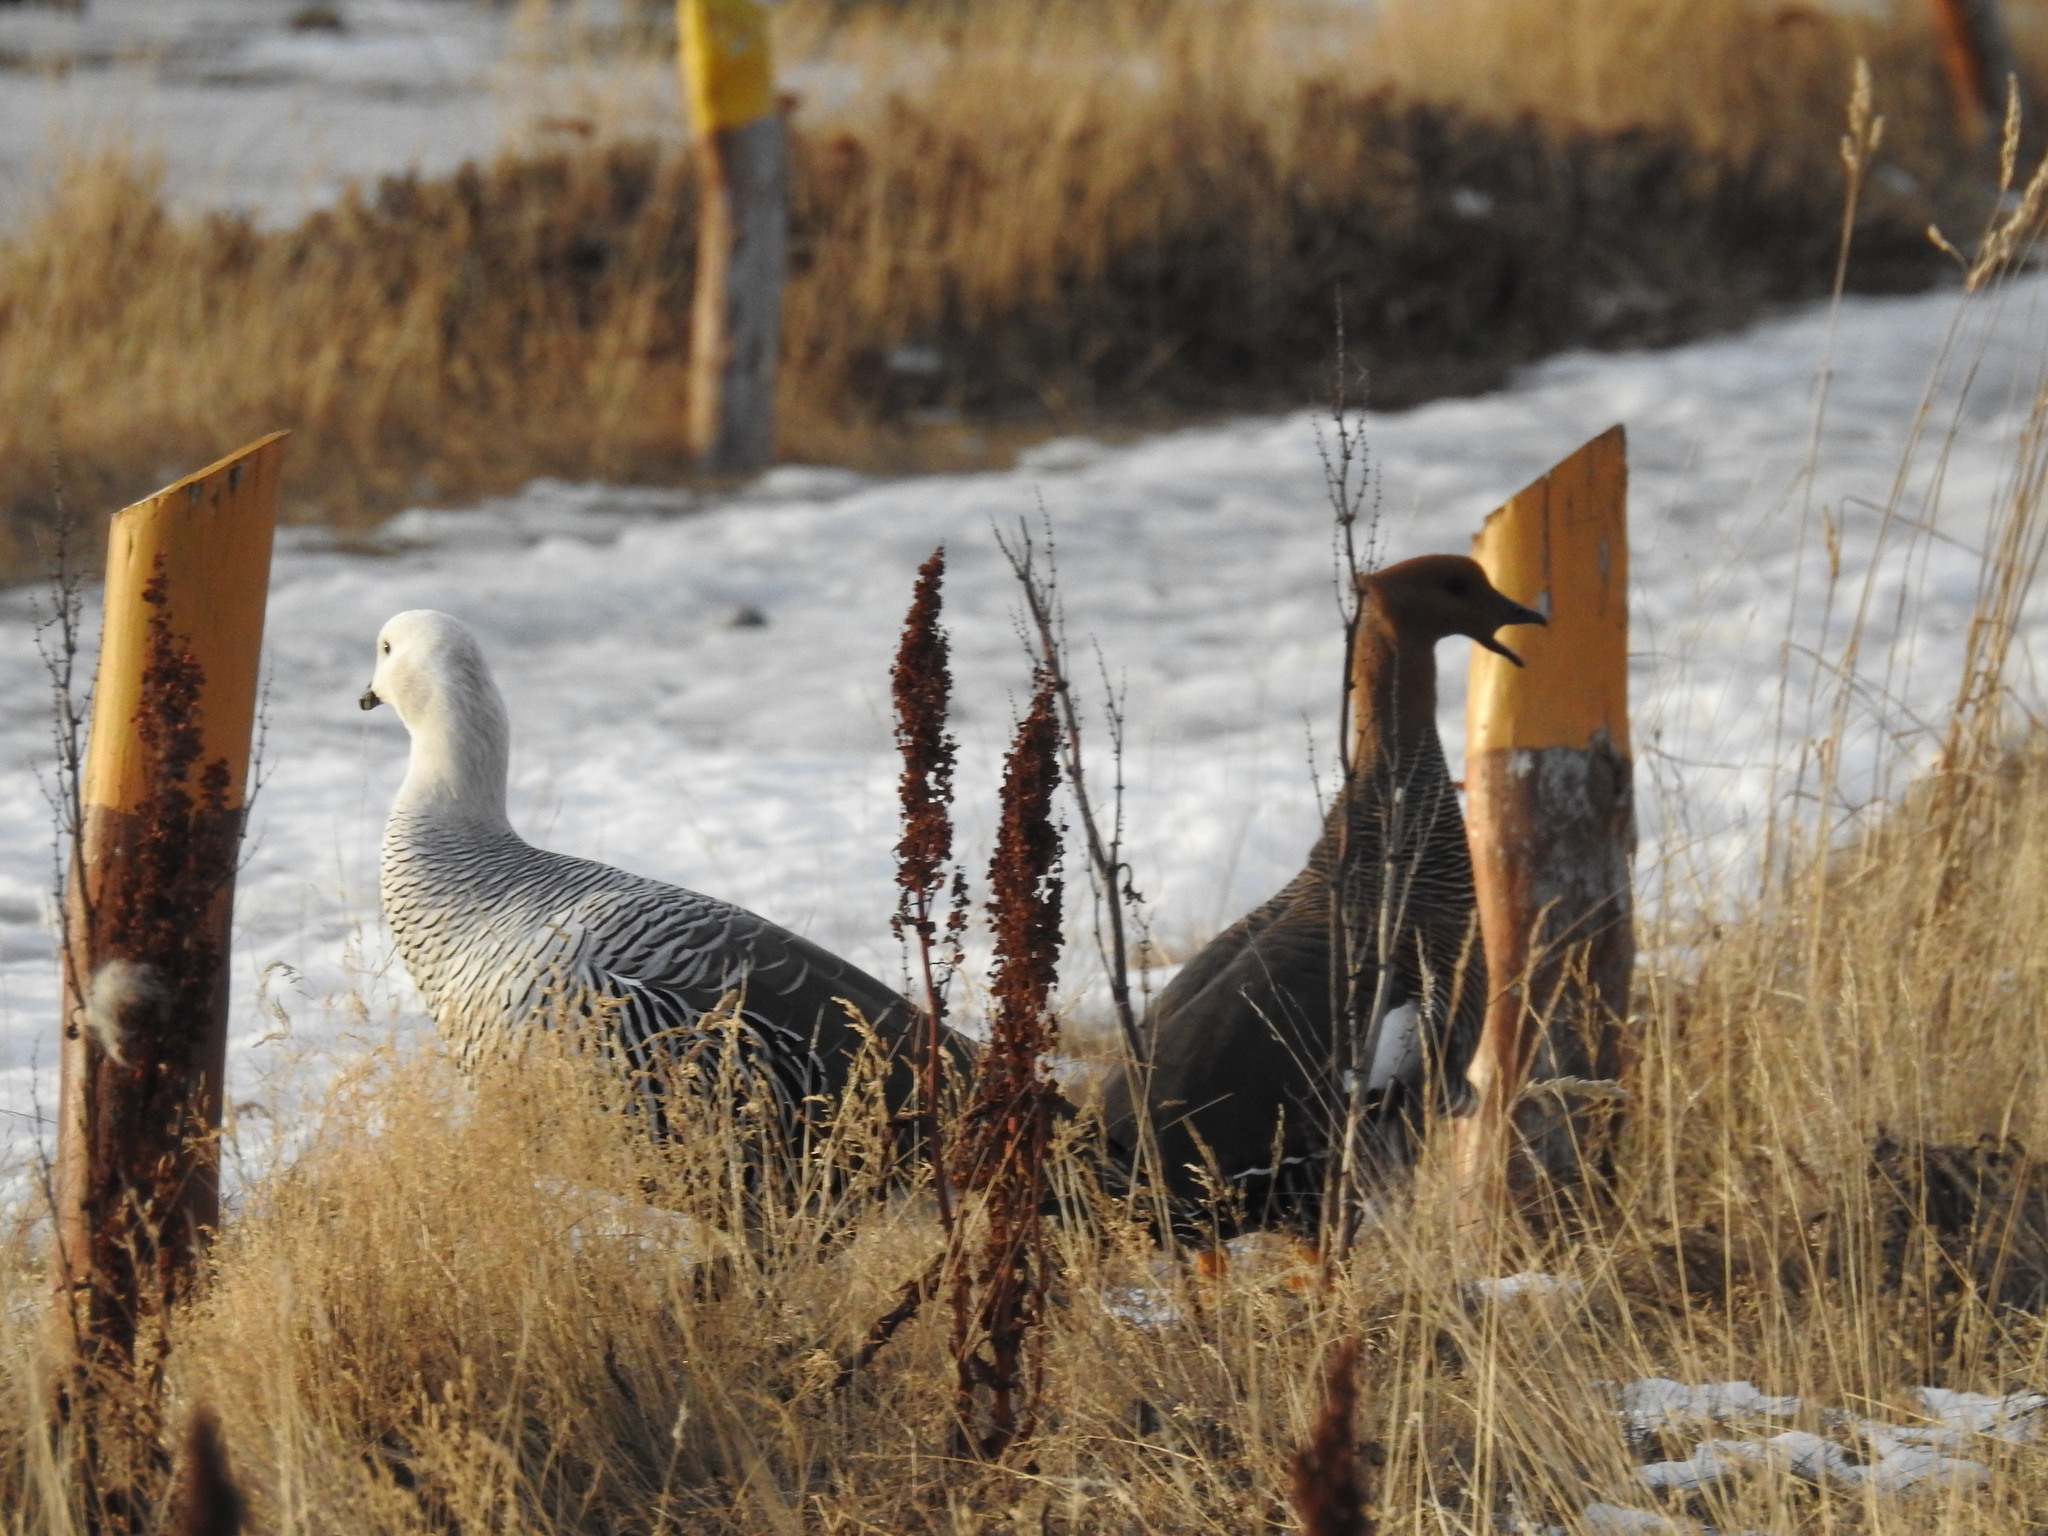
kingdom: Animalia
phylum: Chordata
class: Aves
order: Anseriformes
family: Anatidae
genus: Chloephaga
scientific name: Chloephaga picta
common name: Upland goose
